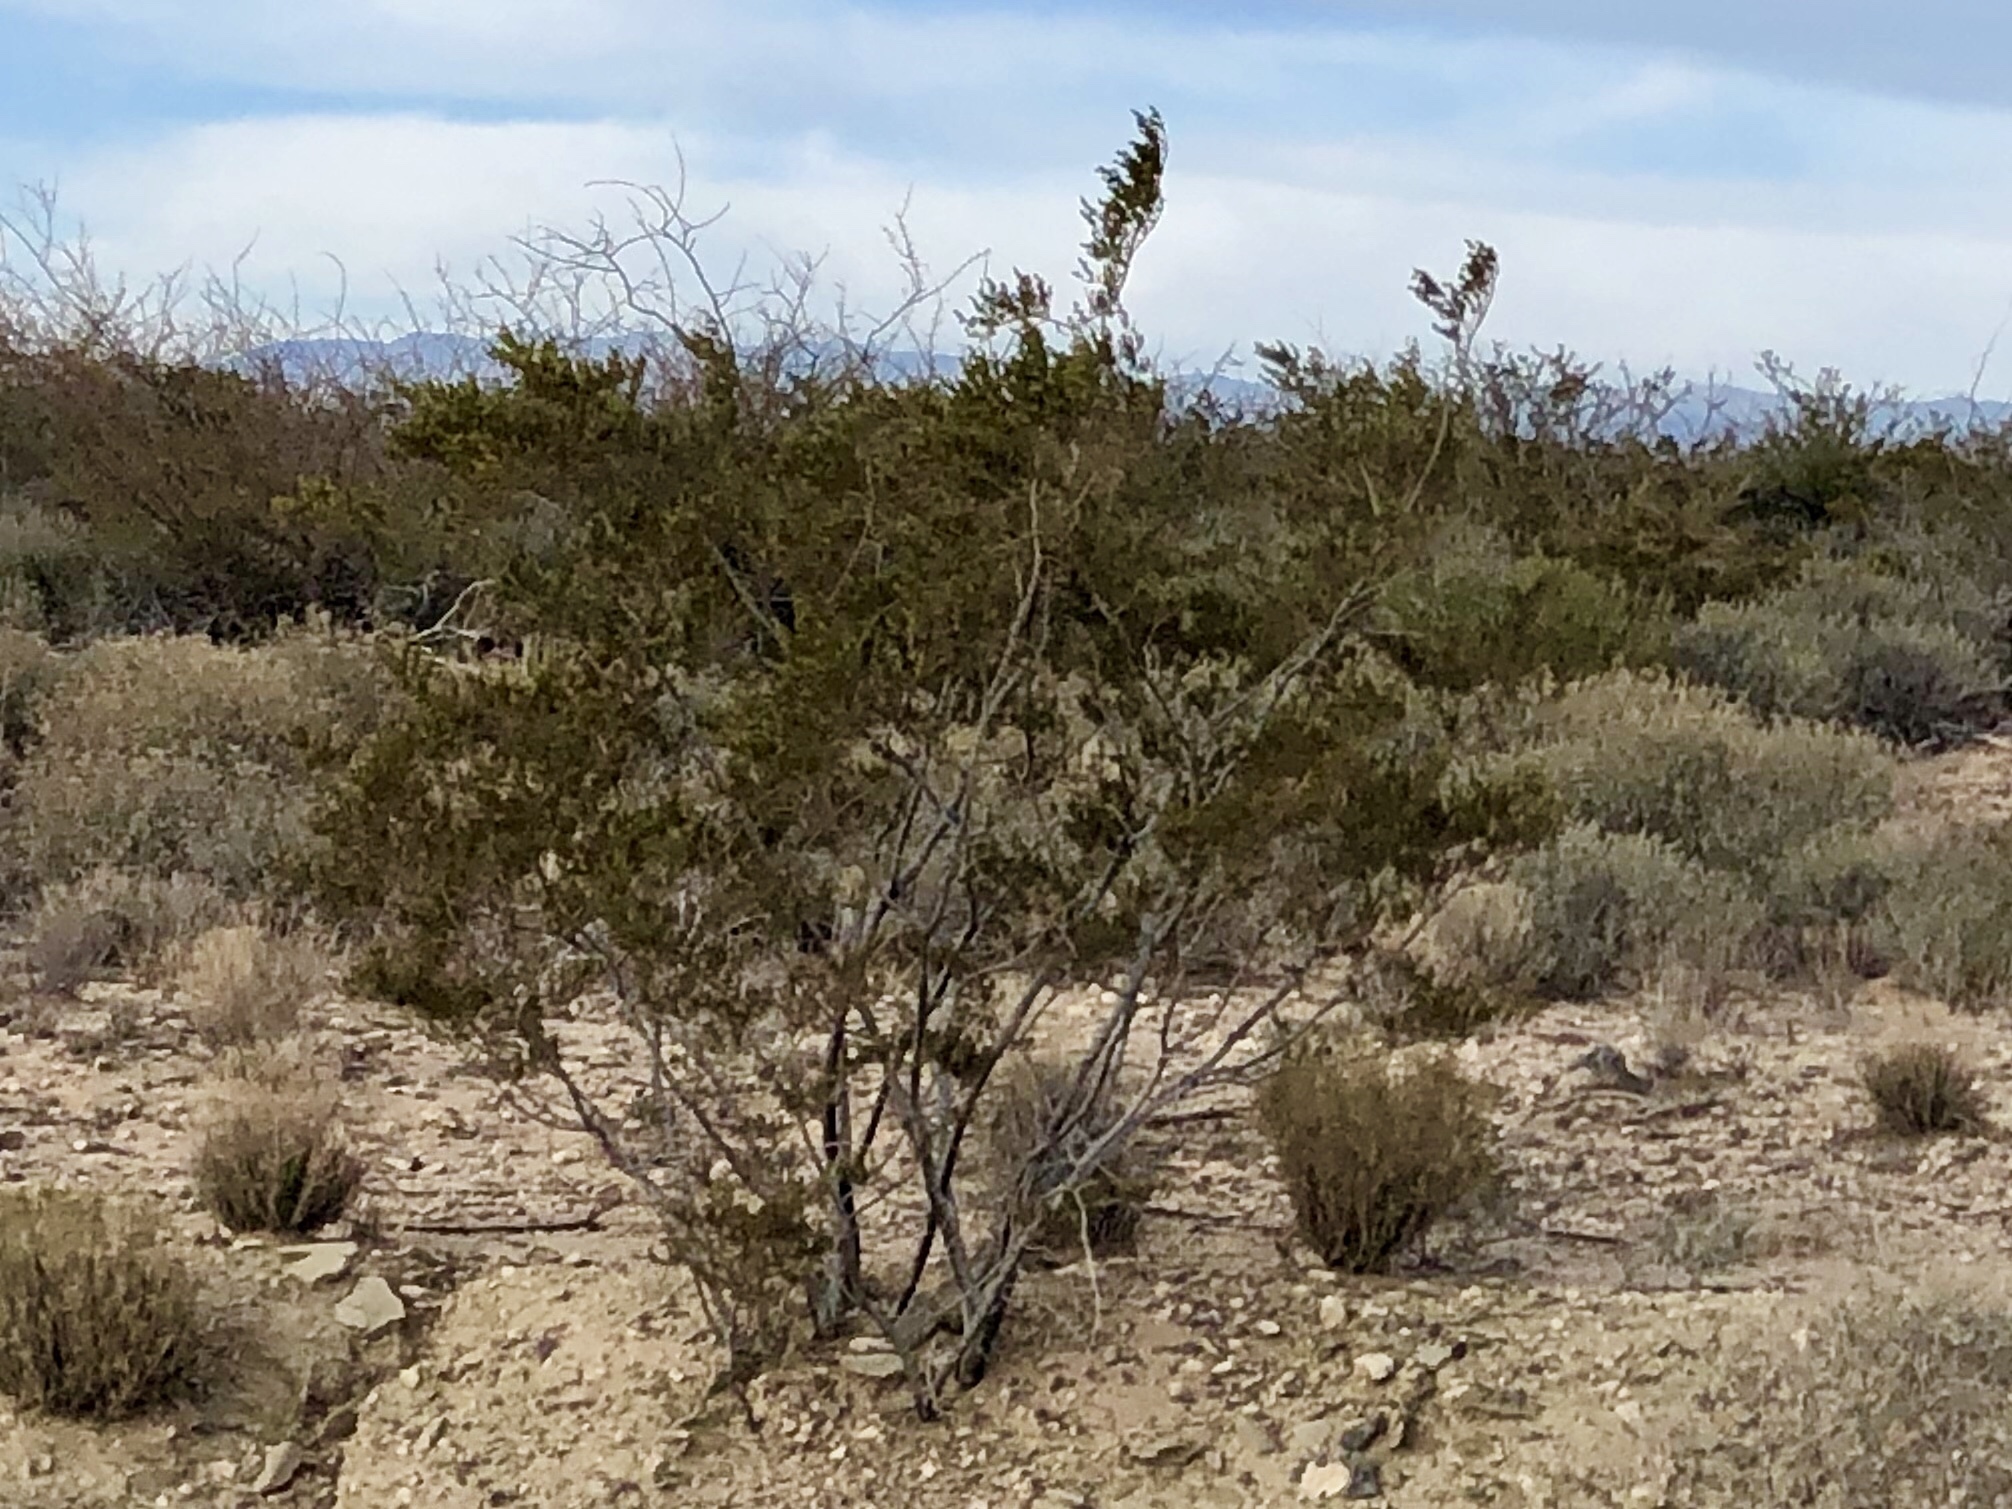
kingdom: Plantae
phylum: Tracheophyta
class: Magnoliopsida
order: Zygophyllales
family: Zygophyllaceae
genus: Larrea
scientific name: Larrea tridentata
